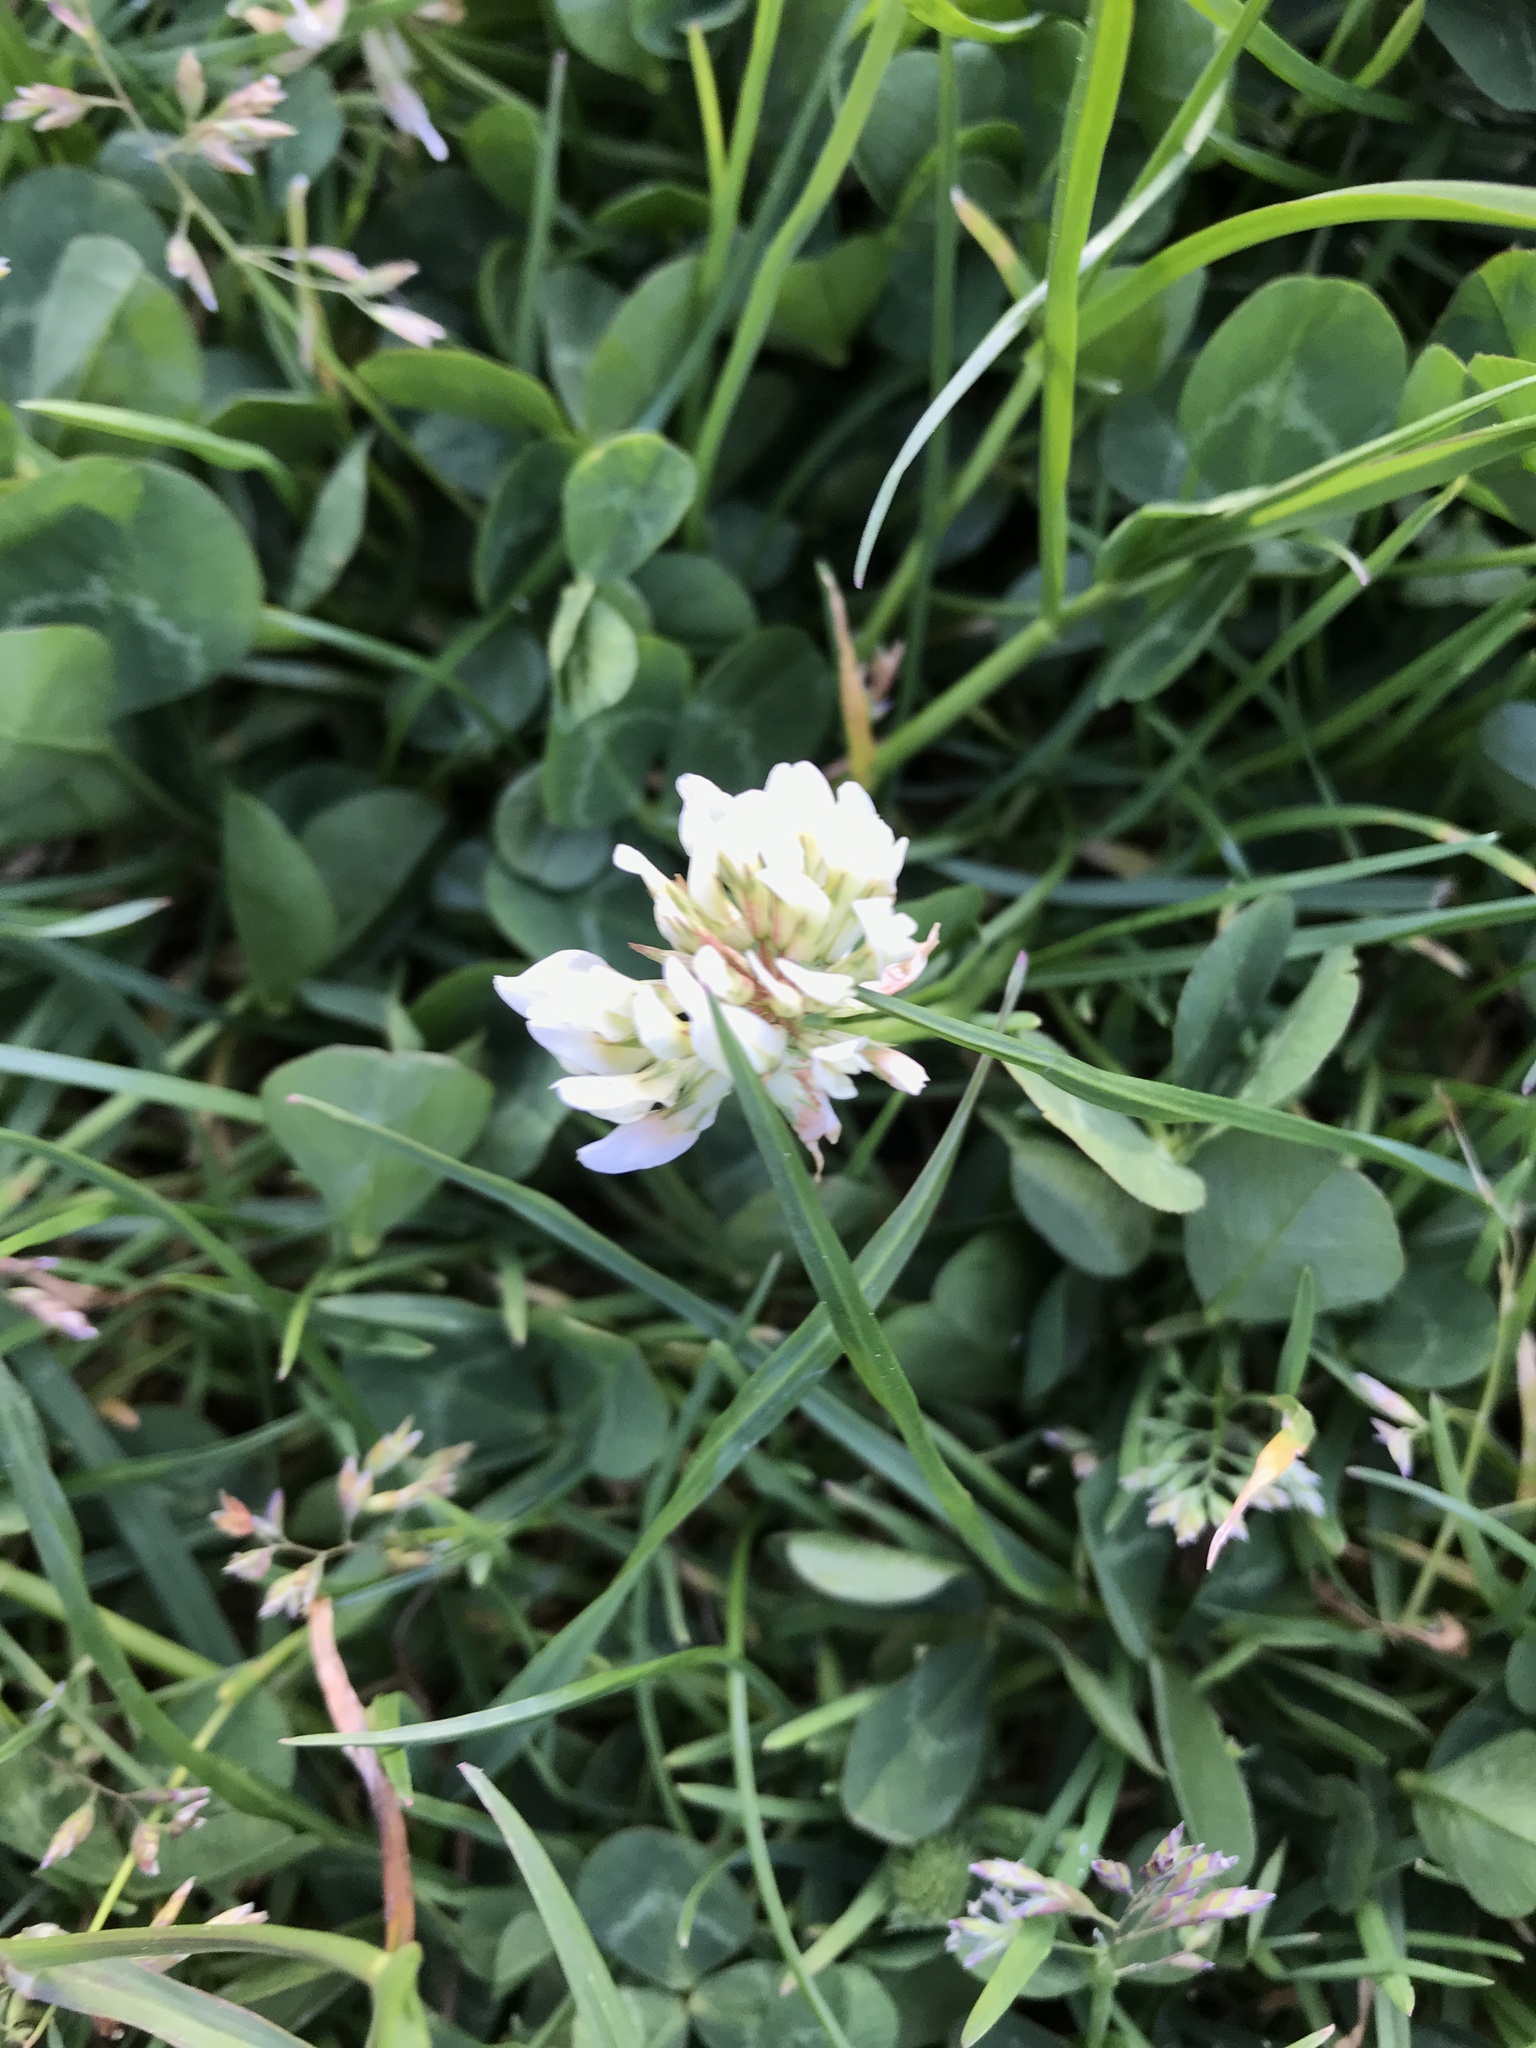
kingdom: Plantae
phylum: Tracheophyta
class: Magnoliopsida
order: Fabales
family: Fabaceae
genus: Trifolium
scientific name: Trifolium repens
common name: White clover
